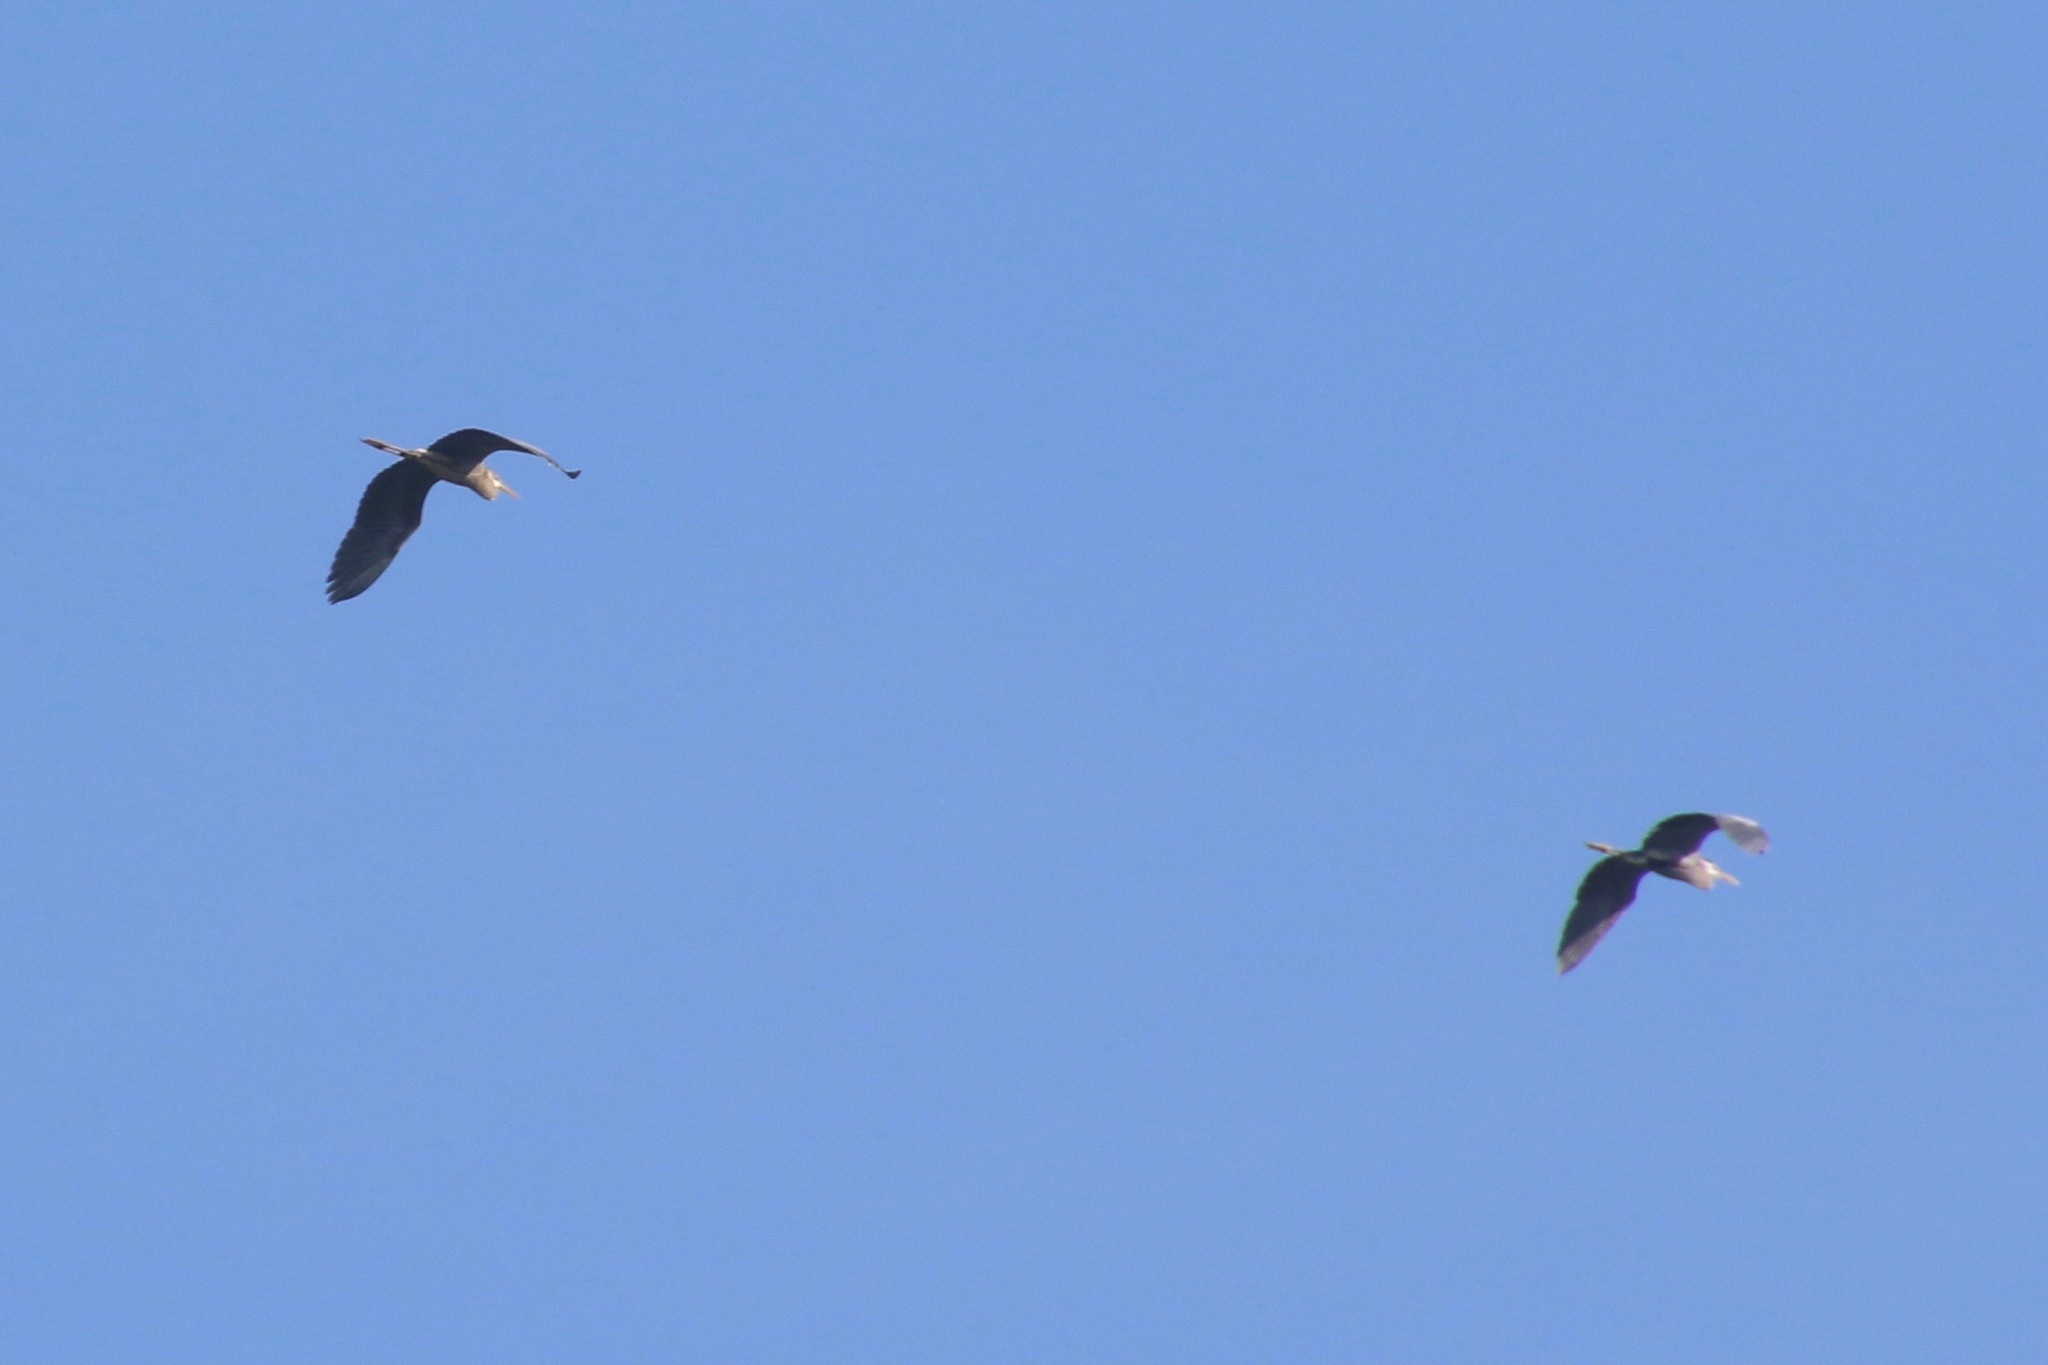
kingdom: Animalia
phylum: Chordata
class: Aves
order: Pelecaniformes
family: Ardeidae
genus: Ardea
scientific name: Ardea herodias
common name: Great blue heron
